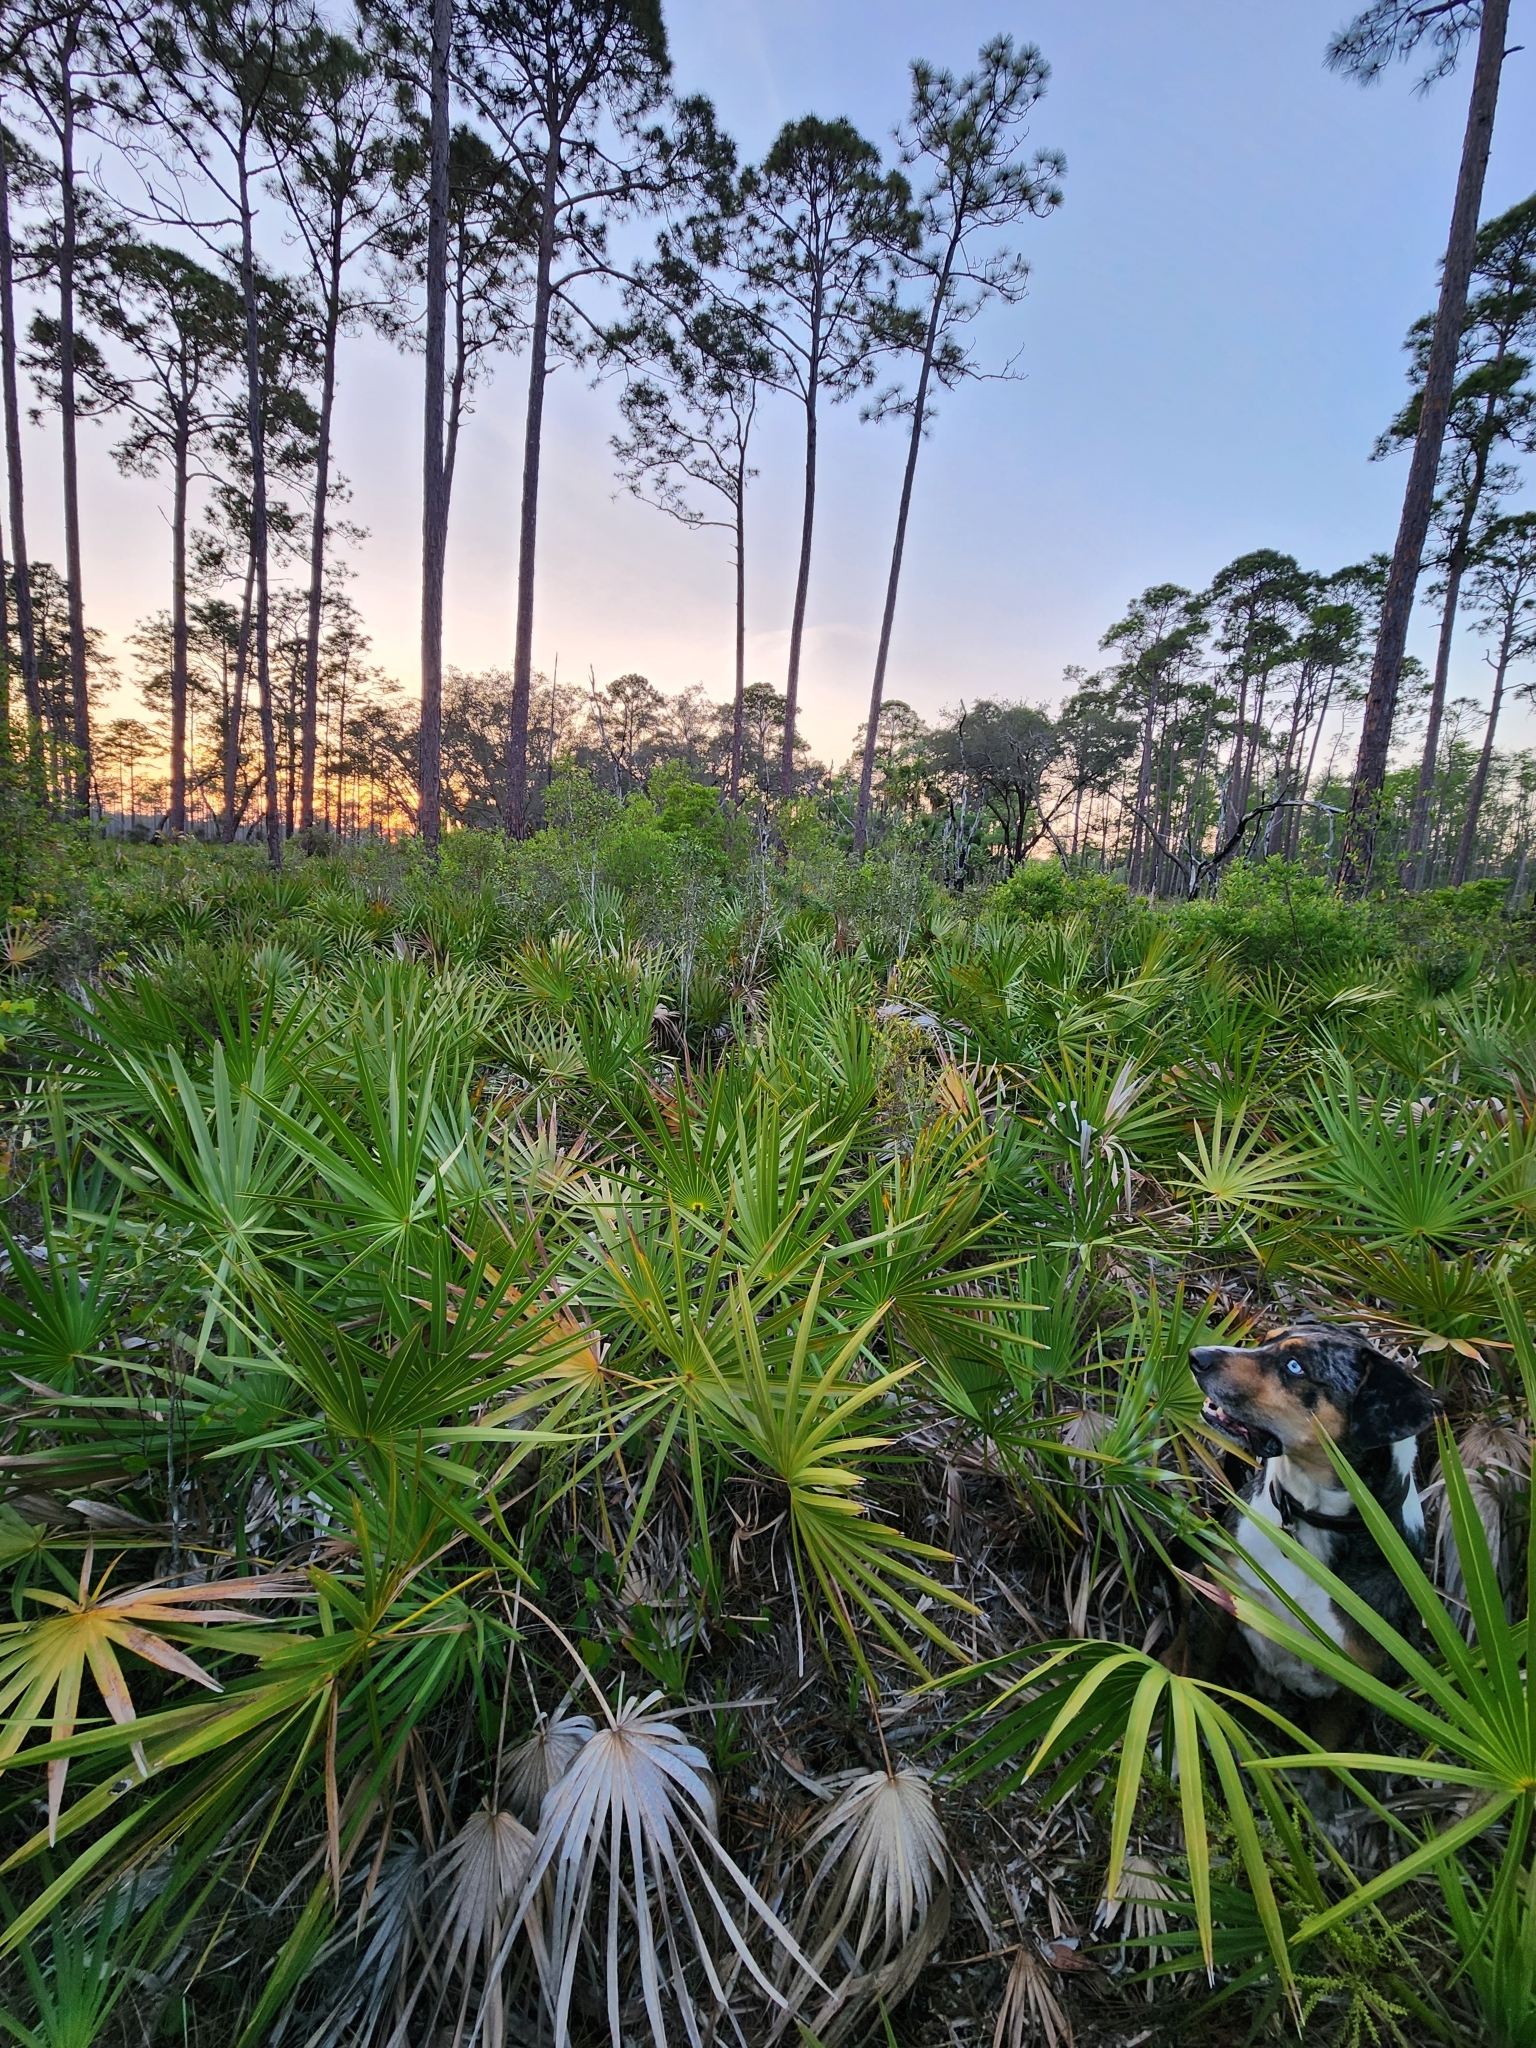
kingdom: Plantae
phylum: Tracheophyta
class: Liliopsida
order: Arecales
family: Arecaceae
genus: Serenoa
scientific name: Serenoa repens
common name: Saw-palmetto
